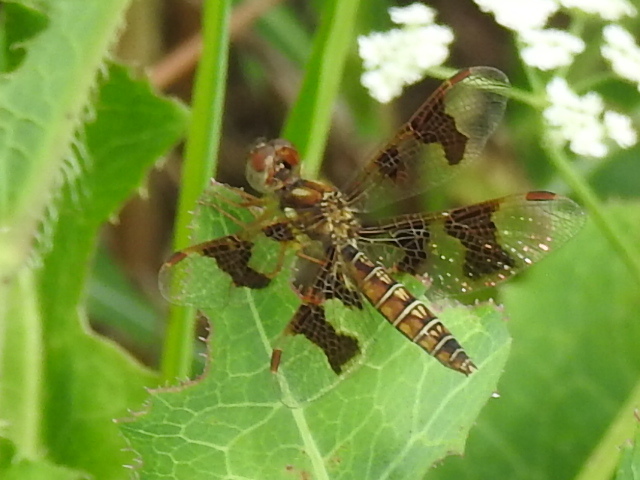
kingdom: Animalia
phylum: Arthropoda
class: Insecta
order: Odonata
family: Libellulidae
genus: Perithemis
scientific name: Perithemis tenera
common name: Eastern amberwing
